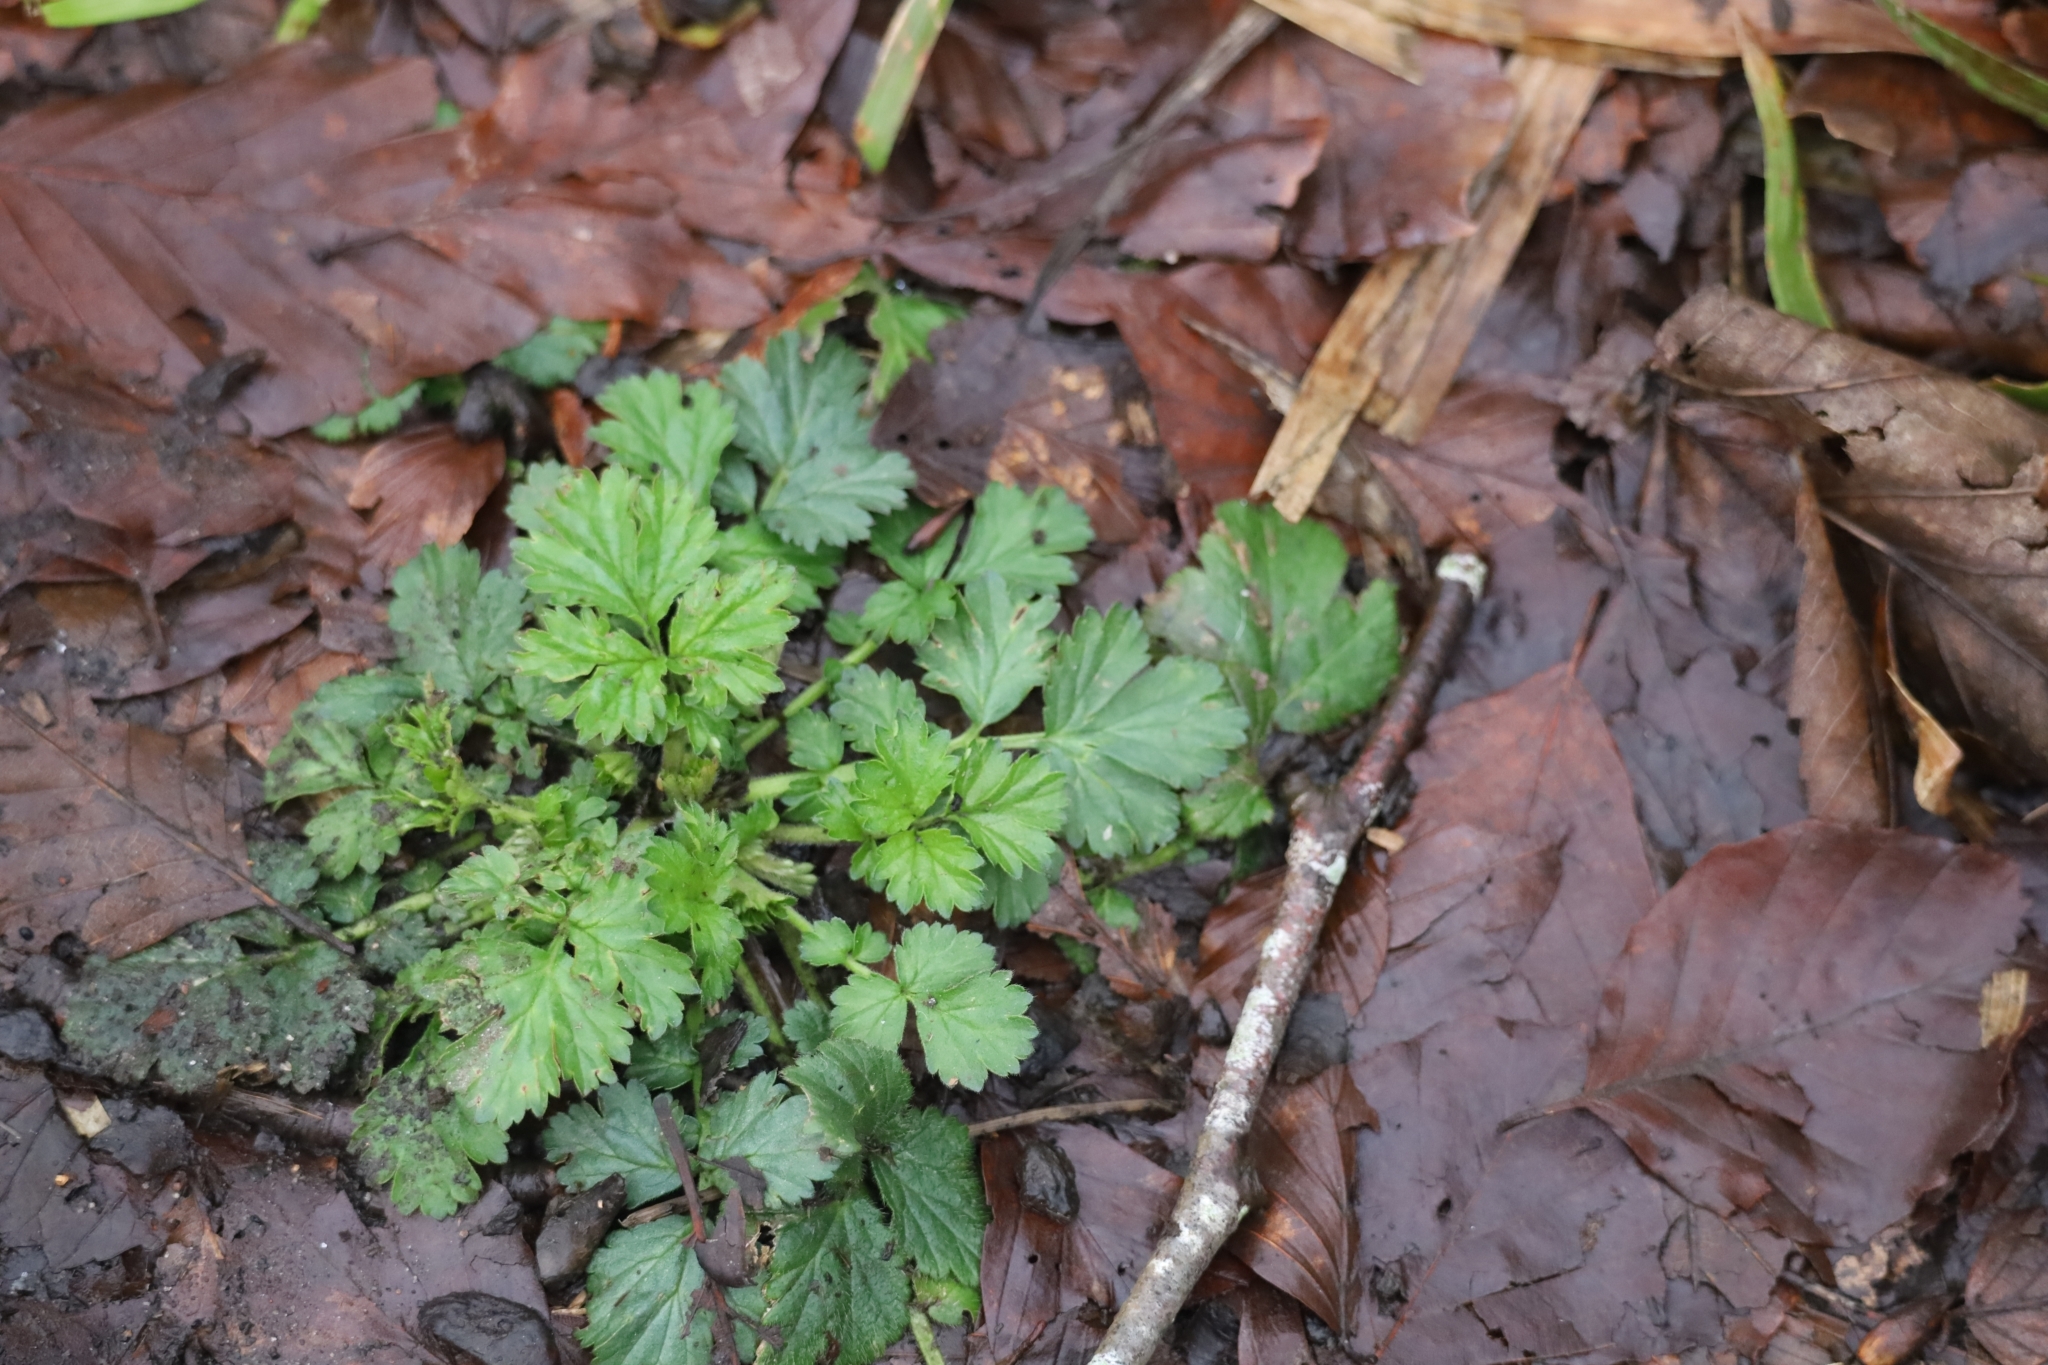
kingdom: Plantae
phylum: Tracheophyta
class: Magnoliopsida
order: Rosales
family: Rosaceae
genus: Geum
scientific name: Geum urbanum
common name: Wood avens
